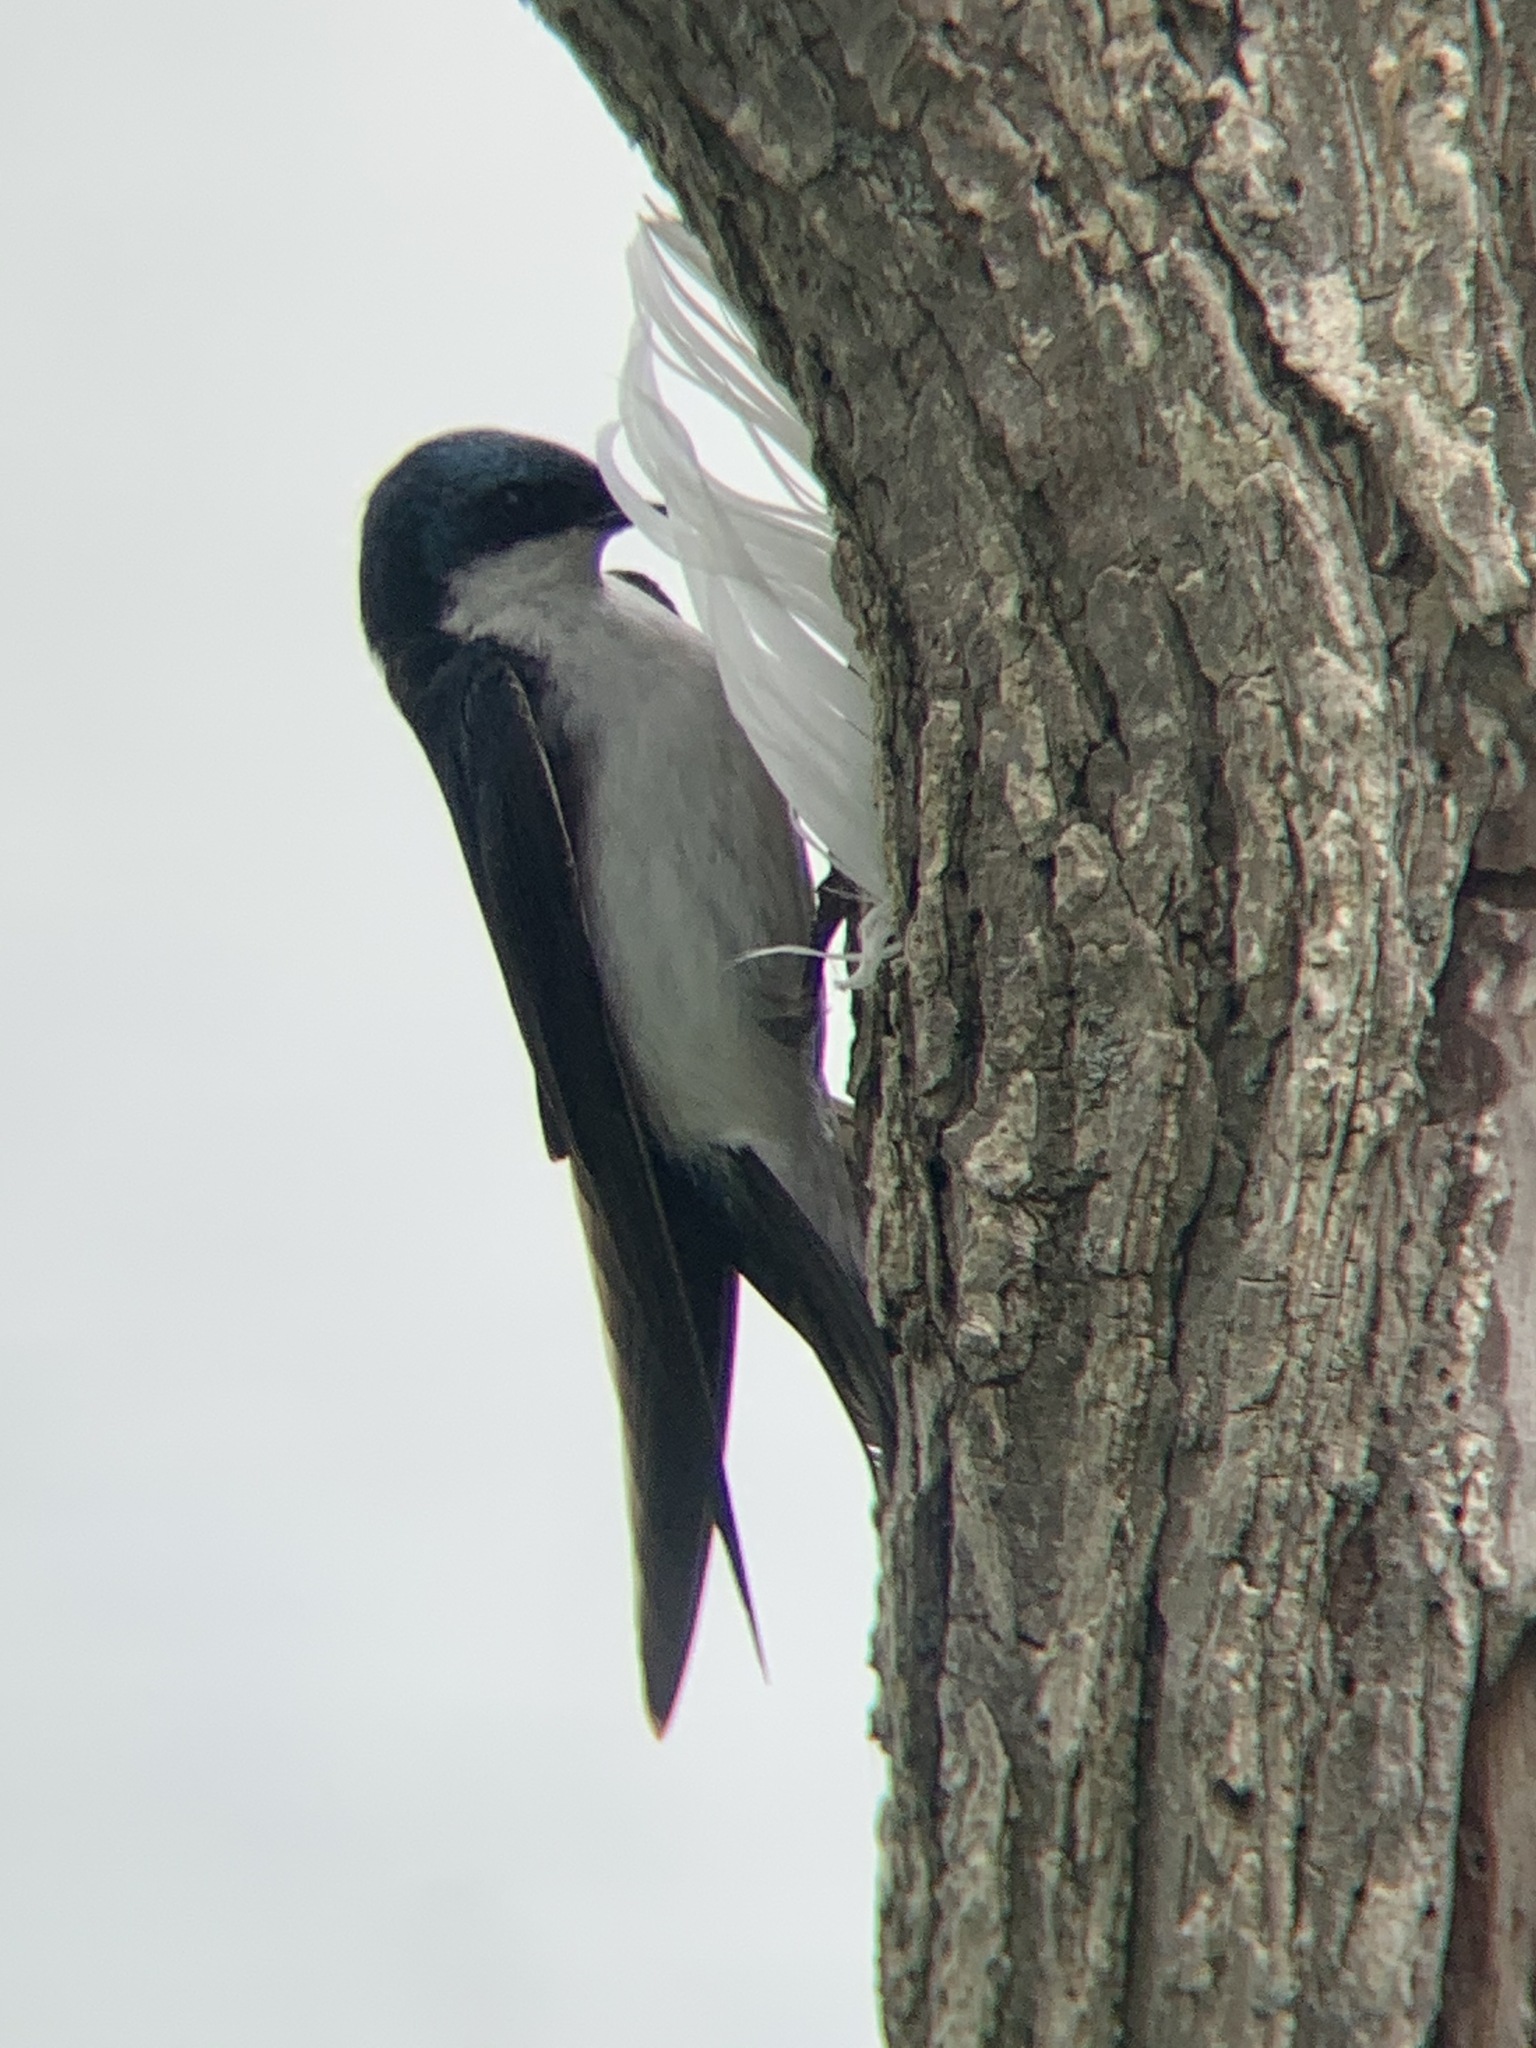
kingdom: Animalia
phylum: Chordata
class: Aves
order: Passeriformes
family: Hirundinidae
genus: Tachycineta
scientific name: Tachycineta bicolor
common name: Tree swallow
